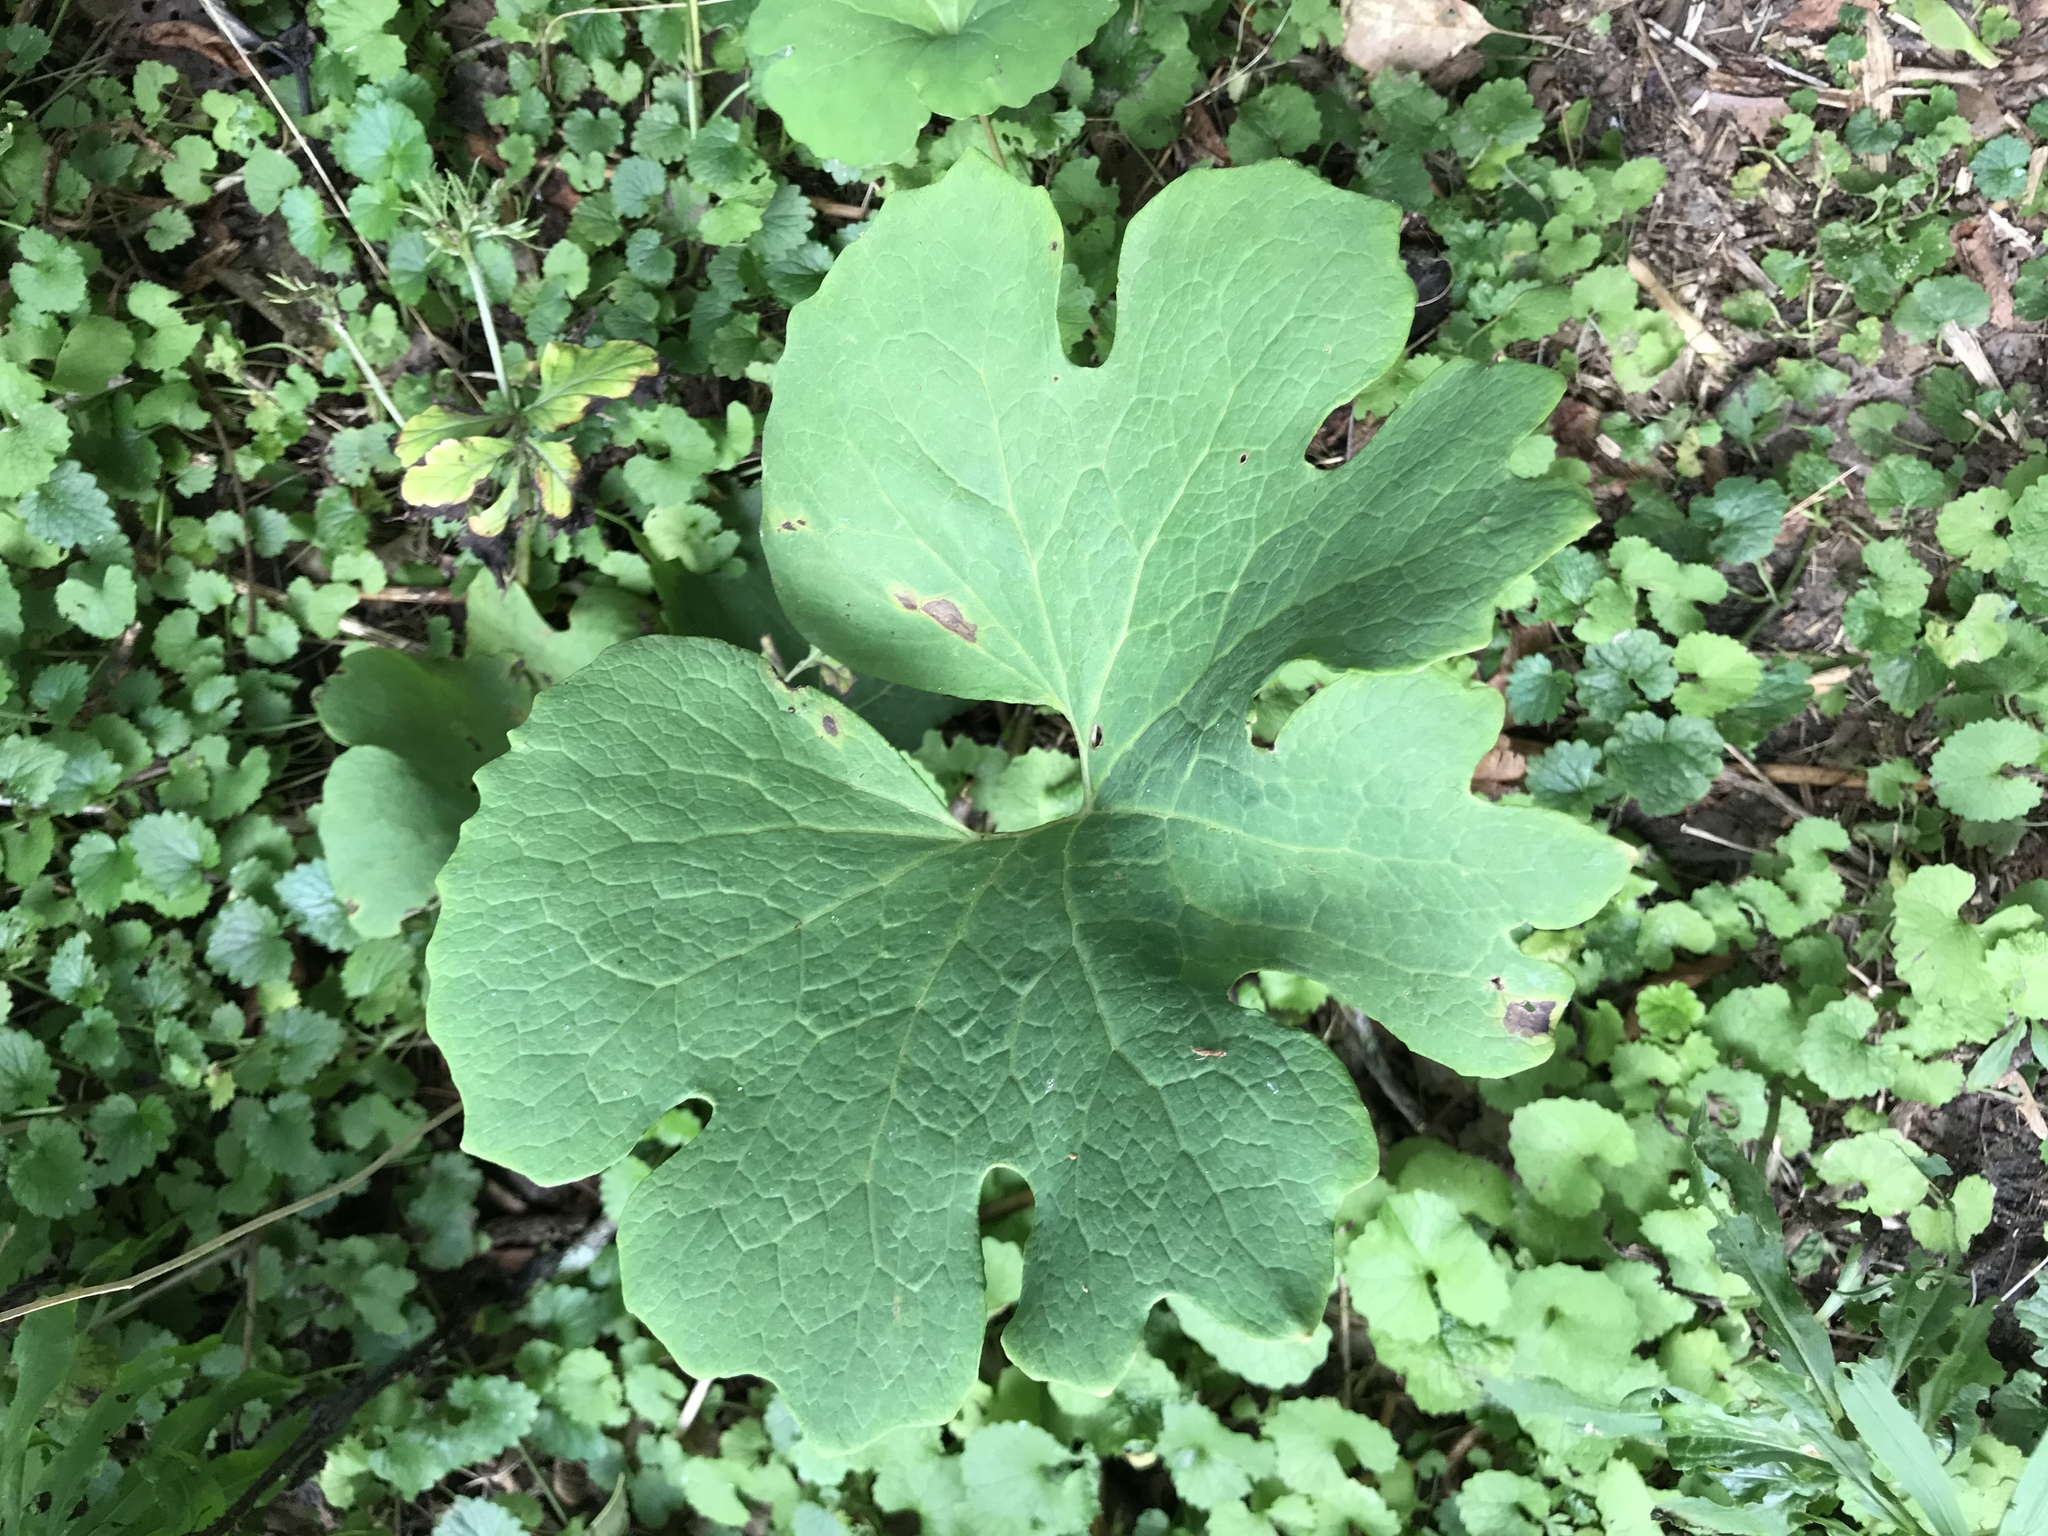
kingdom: Plantae
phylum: Tracheophyta
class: Magnoliopsida
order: Ranunculales
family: Papaveraceae
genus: Sanguinaria
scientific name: Sanguinaria canadensis
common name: Bloodroot
